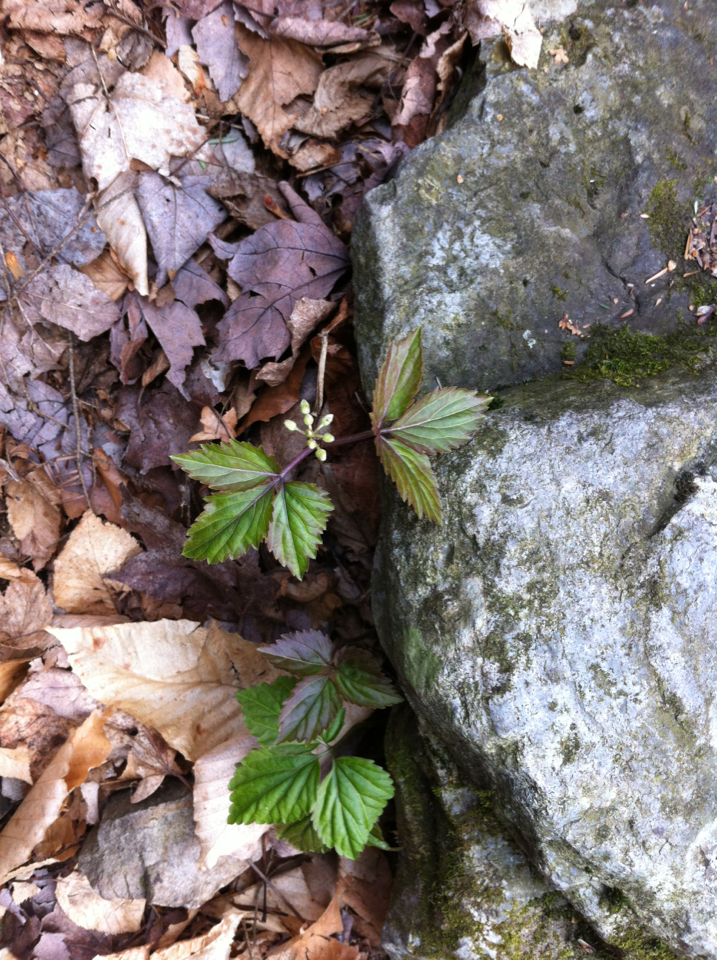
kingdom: Plantae
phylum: Tracheophyta
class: Magnoliopsida
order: Apiales
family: Araliaceae
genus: Panax
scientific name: Panax trifolius
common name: Dwarf ginseng
